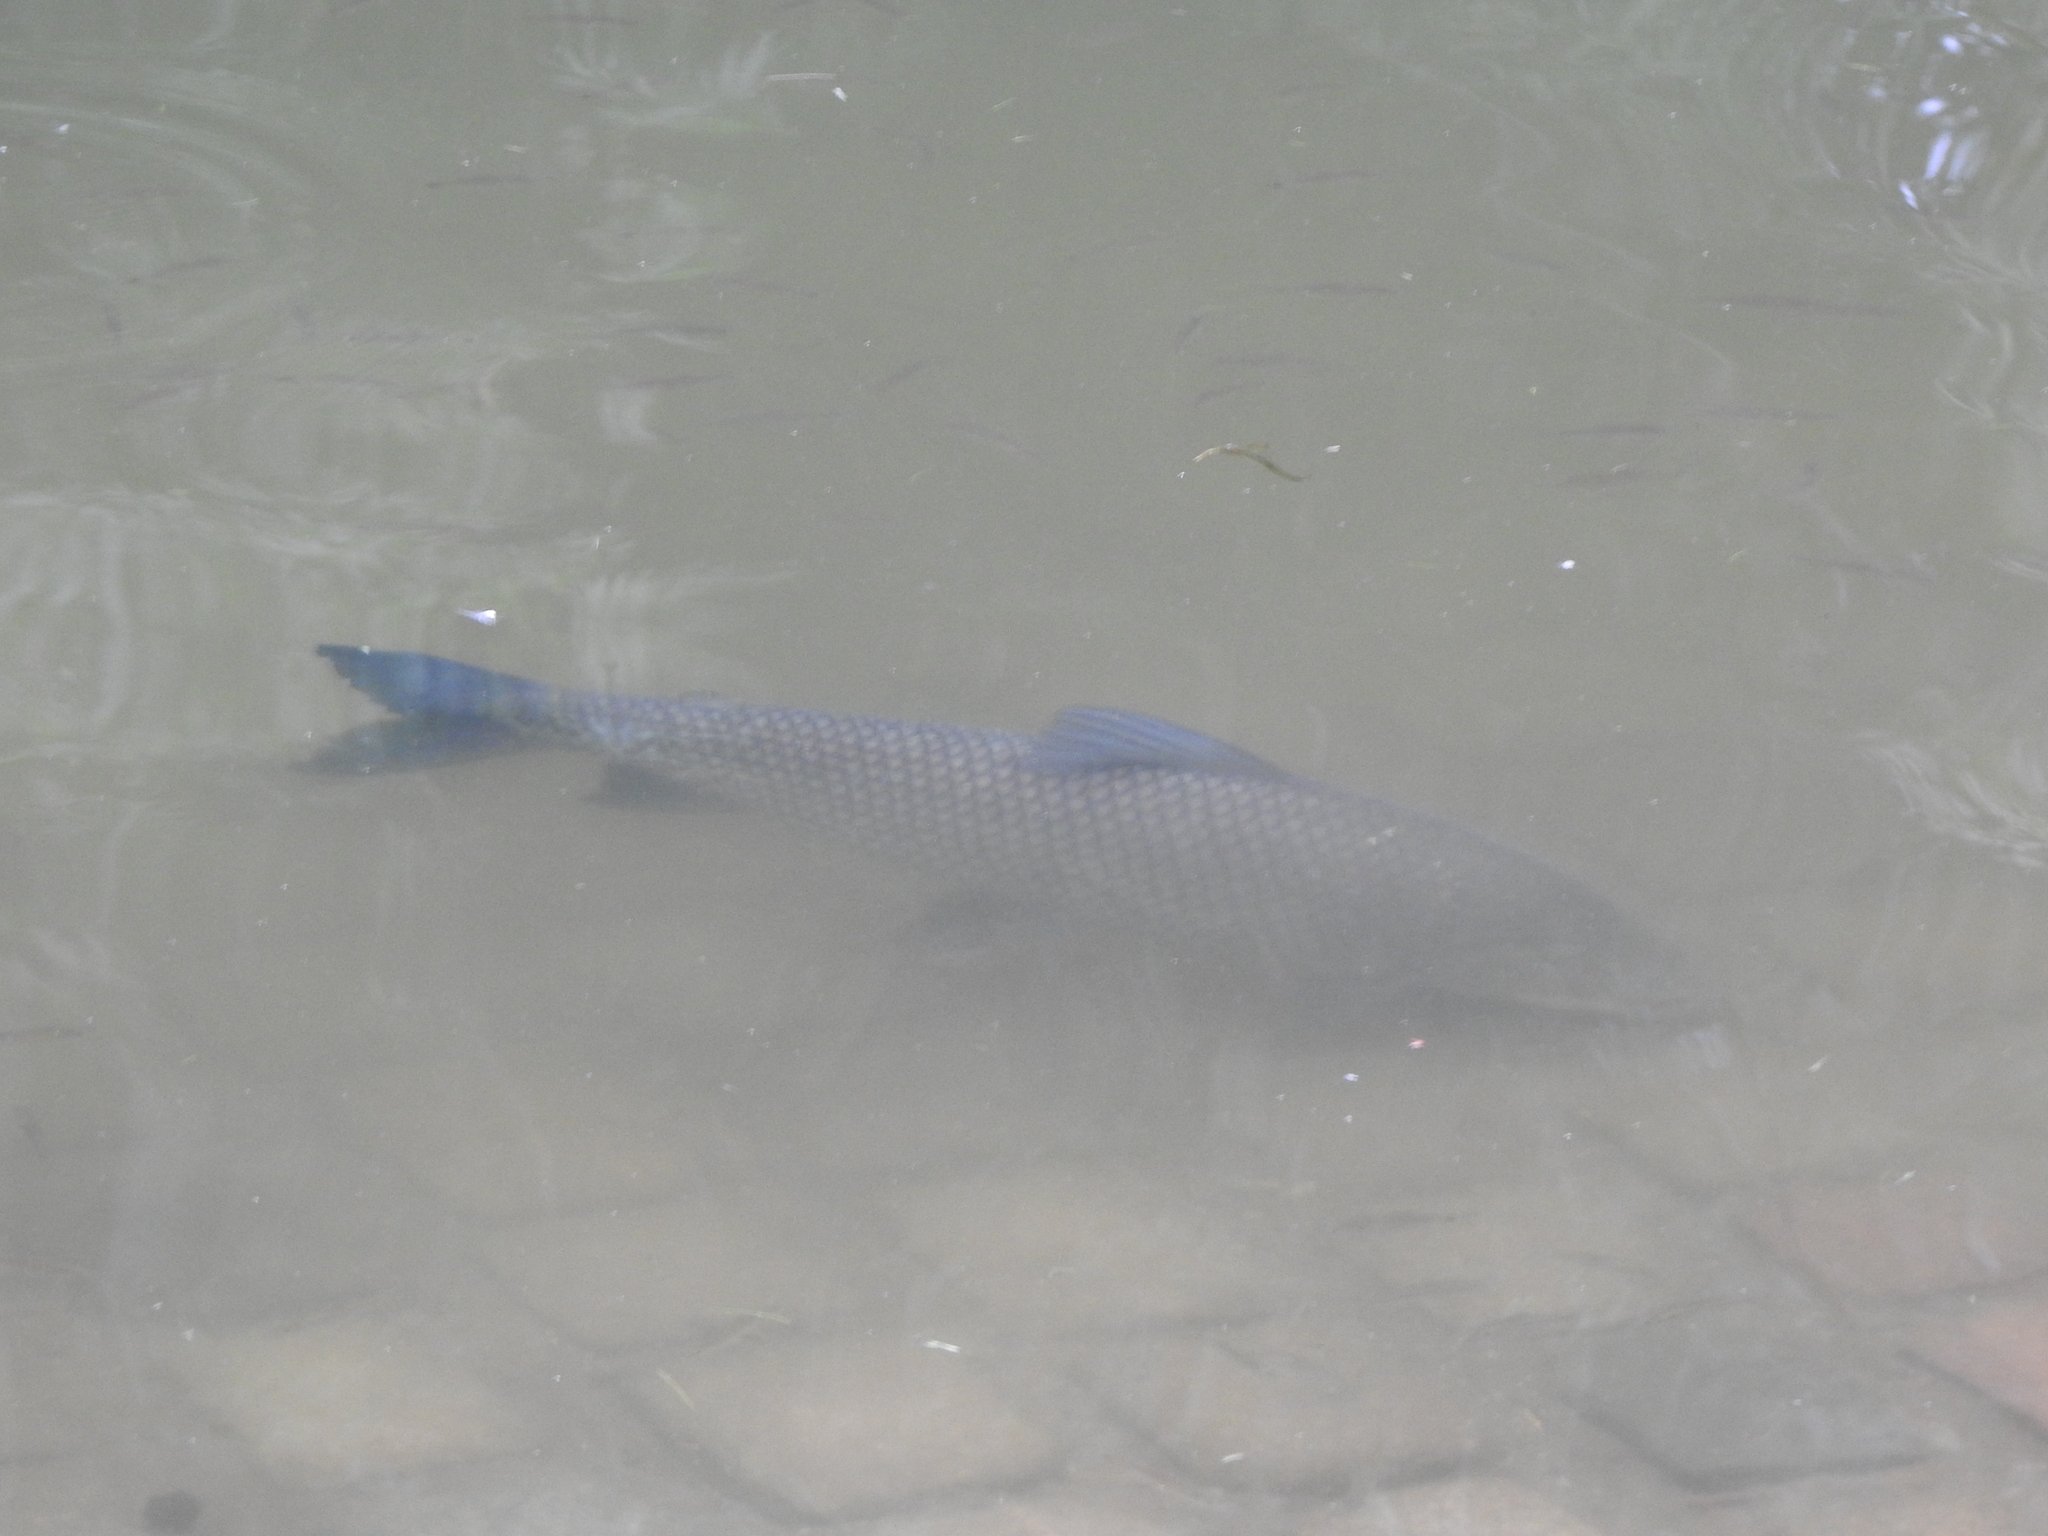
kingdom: Animalia
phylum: Chordata
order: Characiformes
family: Prochilodontidae
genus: Prochilodus
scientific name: Prochilodus lineatus
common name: Curimbata
